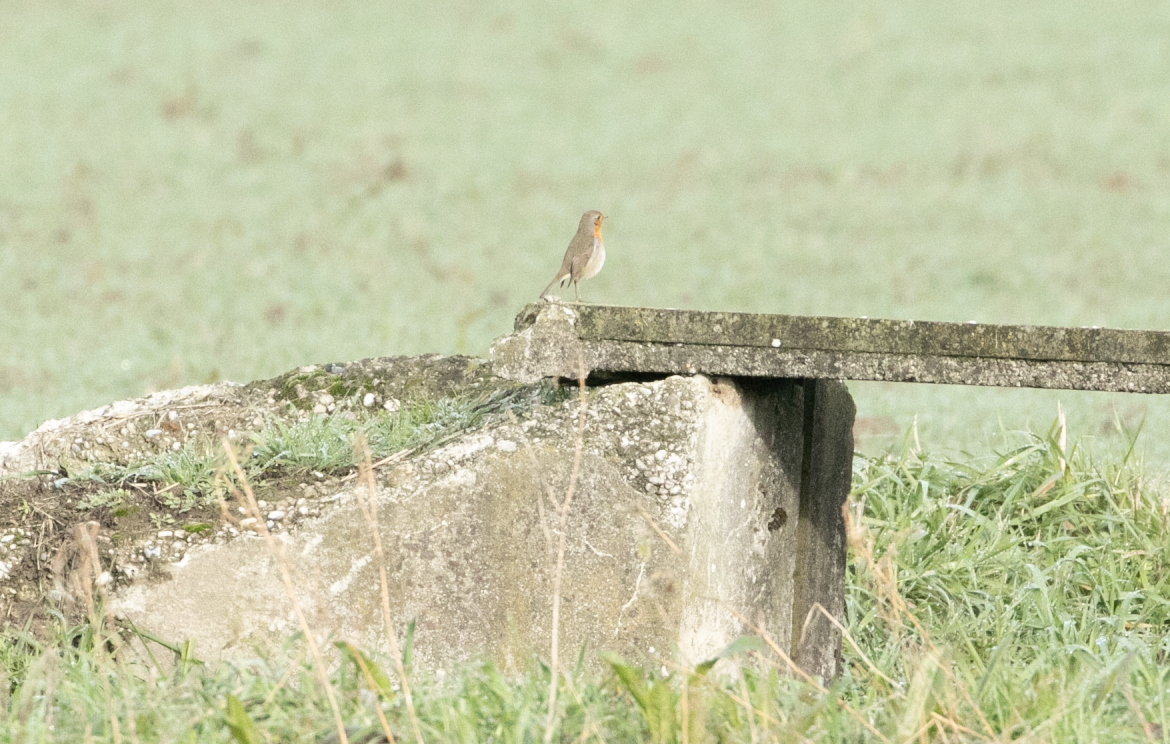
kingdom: Animalia
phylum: Chordata
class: Aves
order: Passeriformes
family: Muscicapidae
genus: Erithacus
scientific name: Erithacus rubecula
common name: European robin
